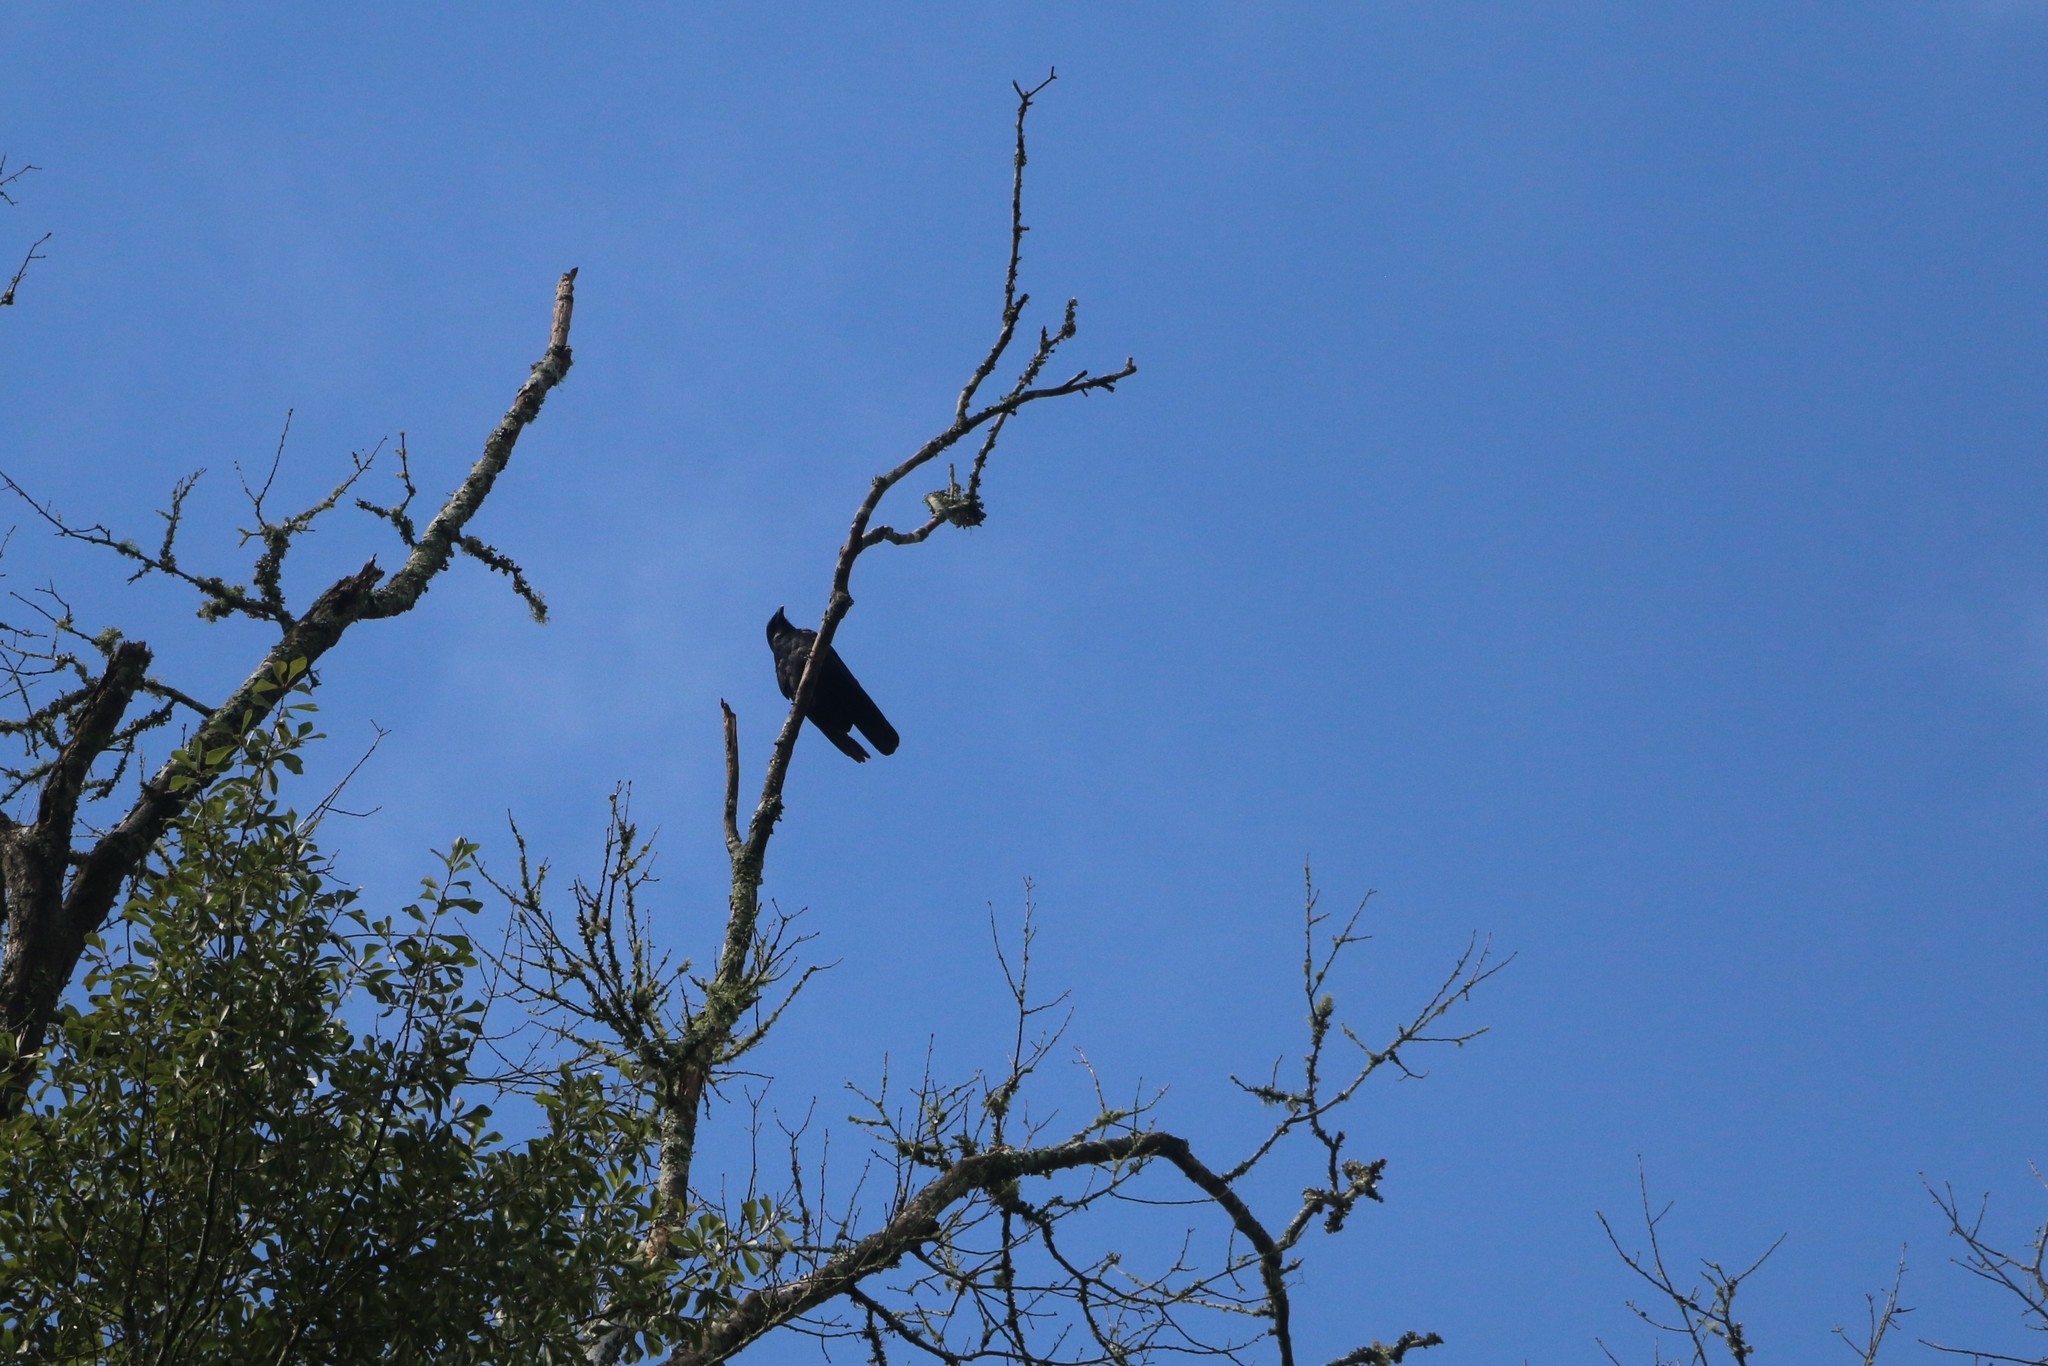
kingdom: Animalia
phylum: Chordata
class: Aves
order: Passeriformes
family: Corvidae
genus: Corvus
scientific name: Corvus
